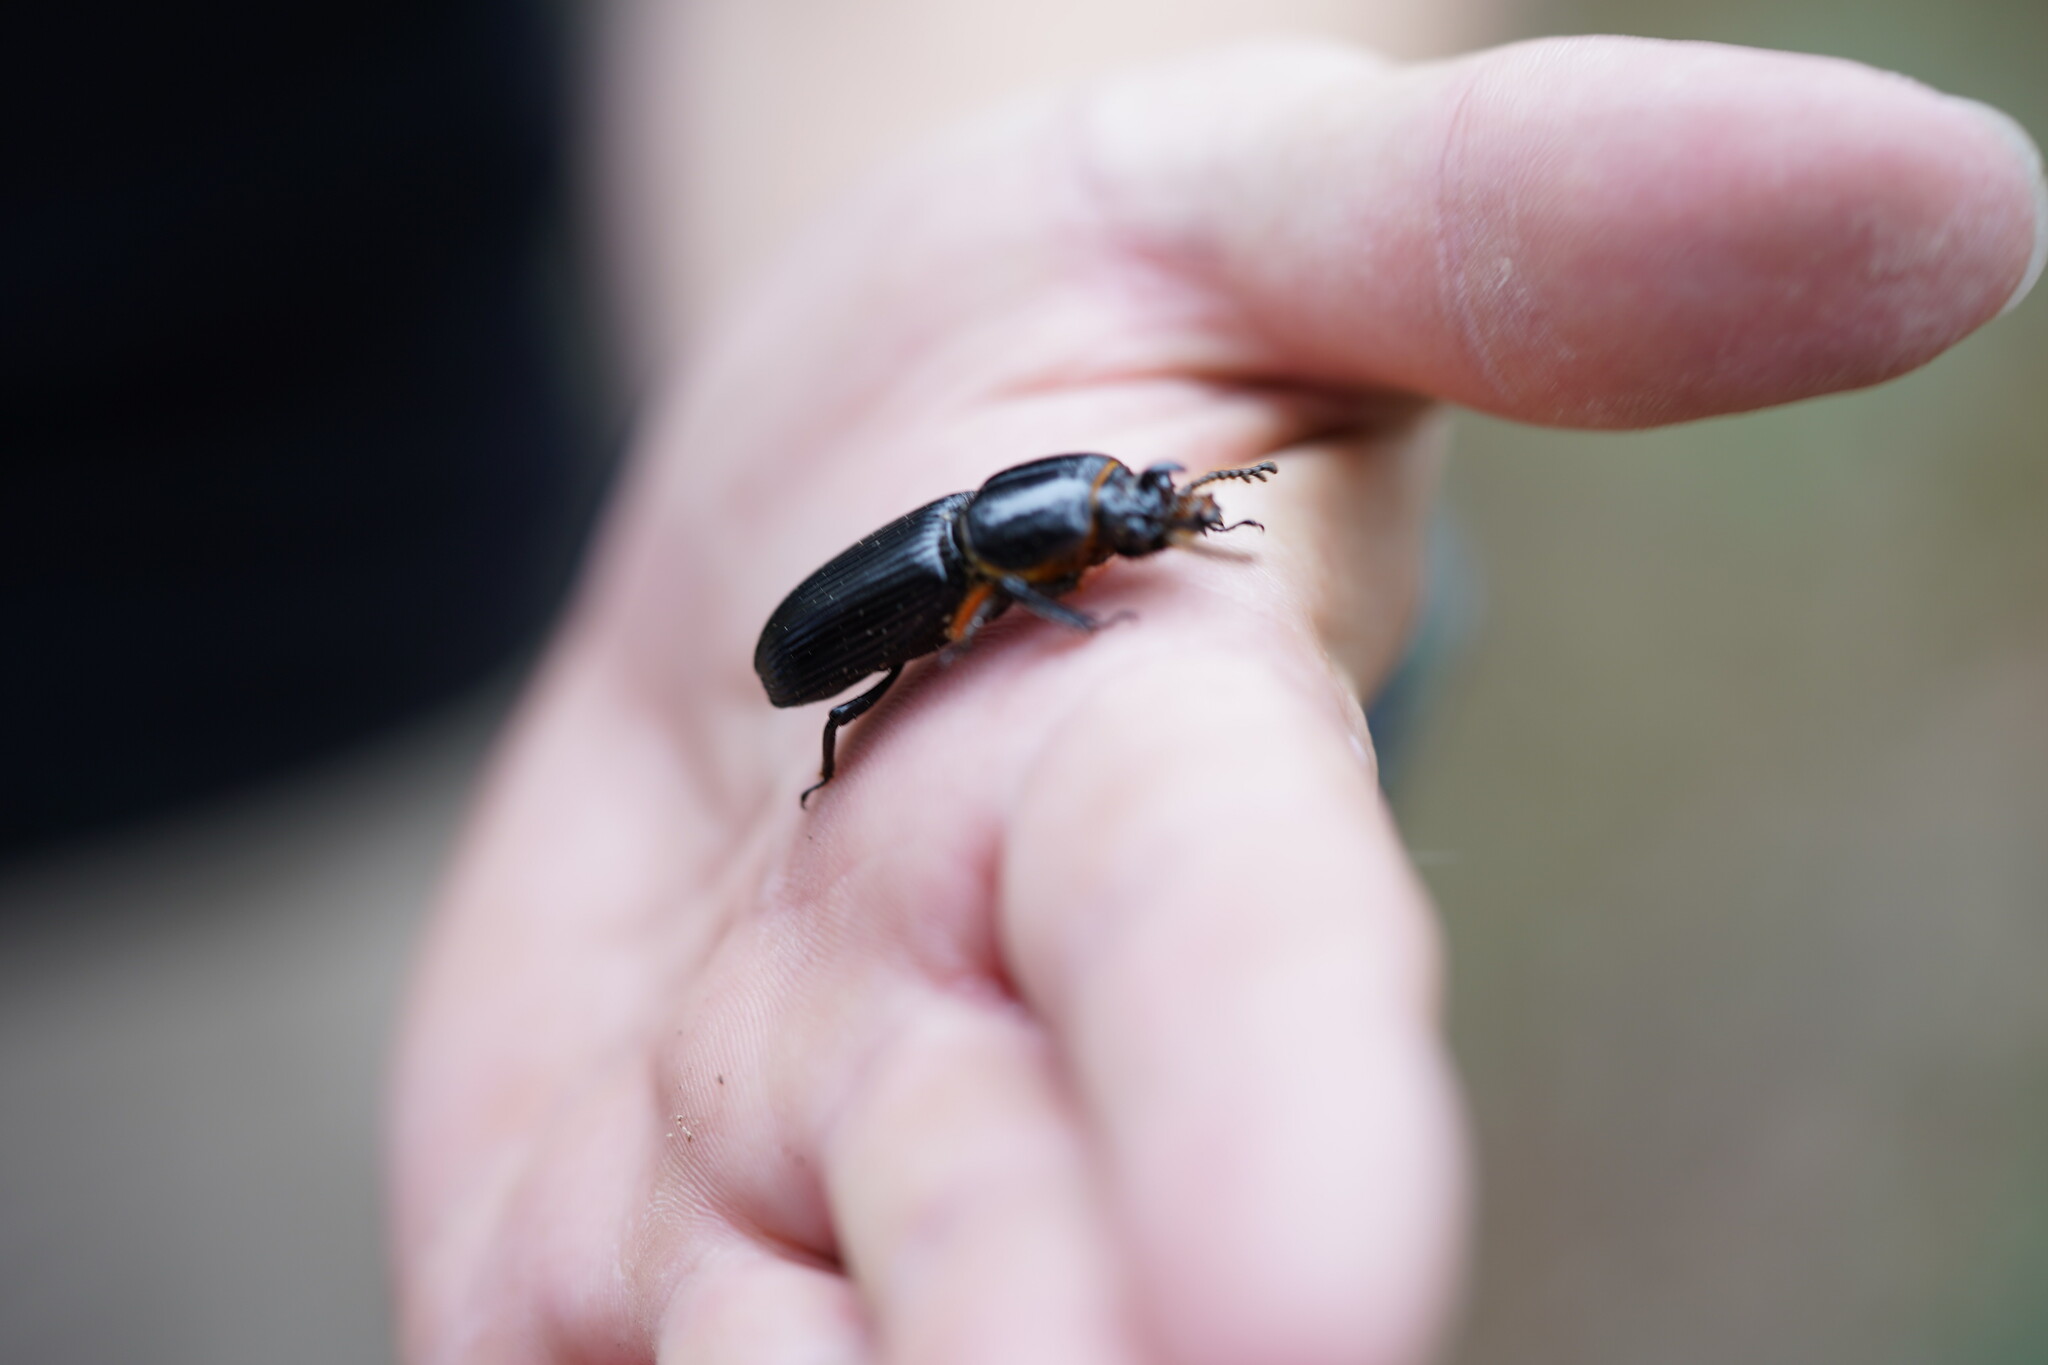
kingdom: Animalia
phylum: Arthropoda
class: Insecta
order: Coleoptera
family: Passalidae
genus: Odontotaenius
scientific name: Odontotaenius disjunctus
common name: Patent leather beetle
